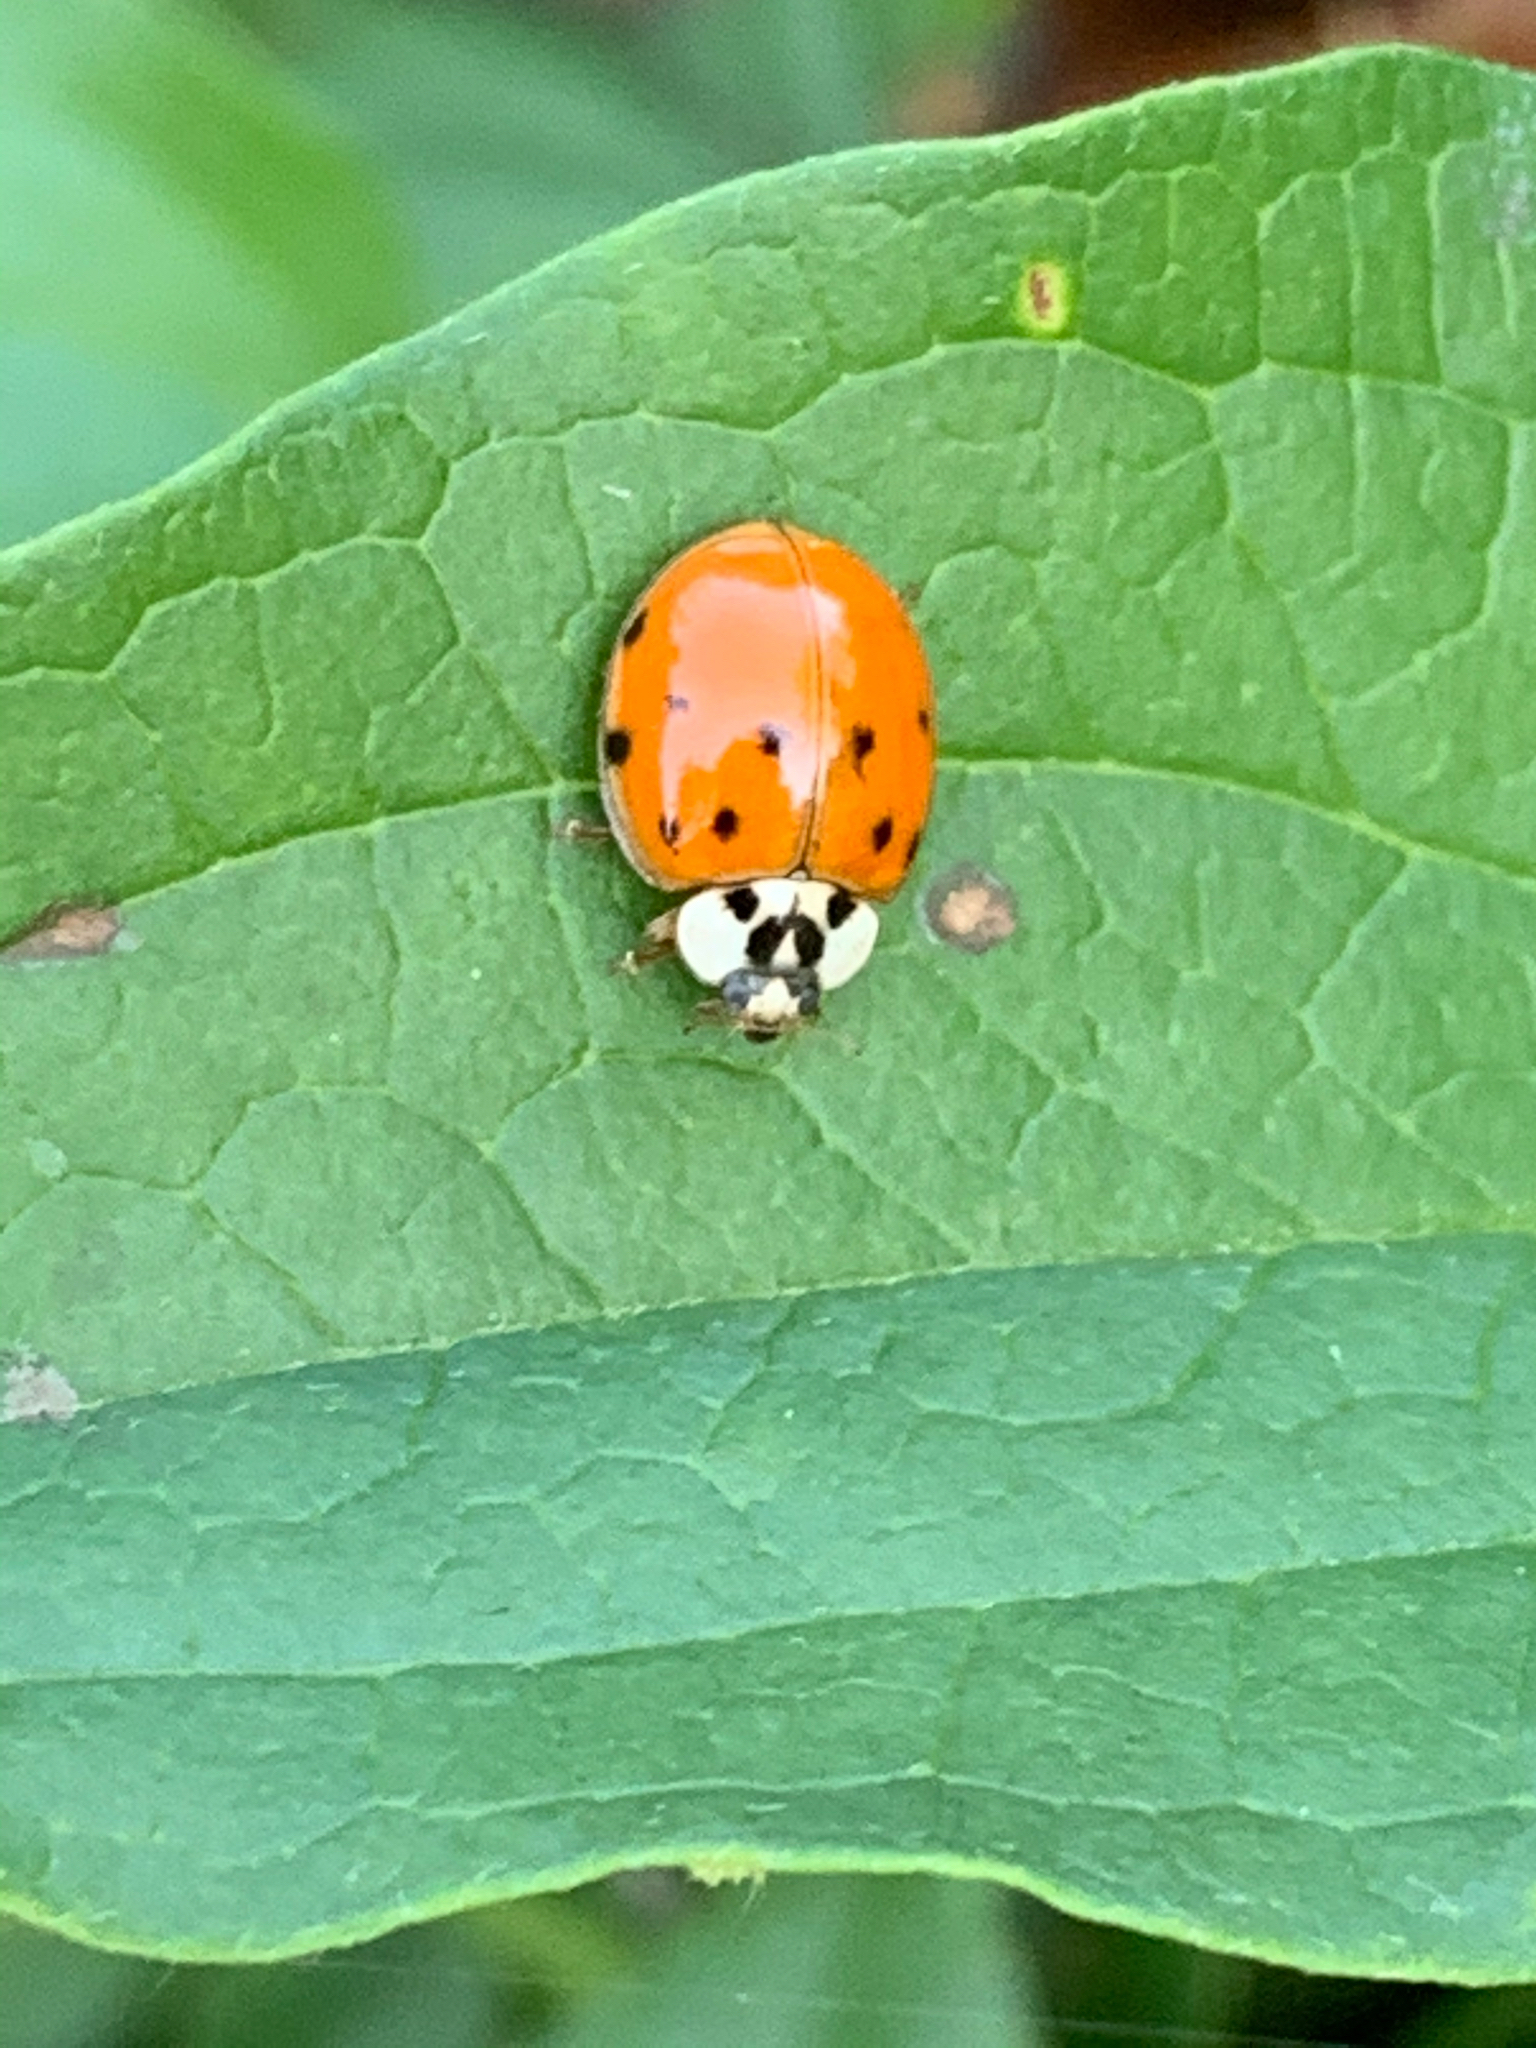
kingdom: Animalia
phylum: Arthropoda
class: Insecta
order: Coleoptera
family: Coccinellidae
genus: Harmonia
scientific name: Harmonia axyridis
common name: Harlequin ladybird
